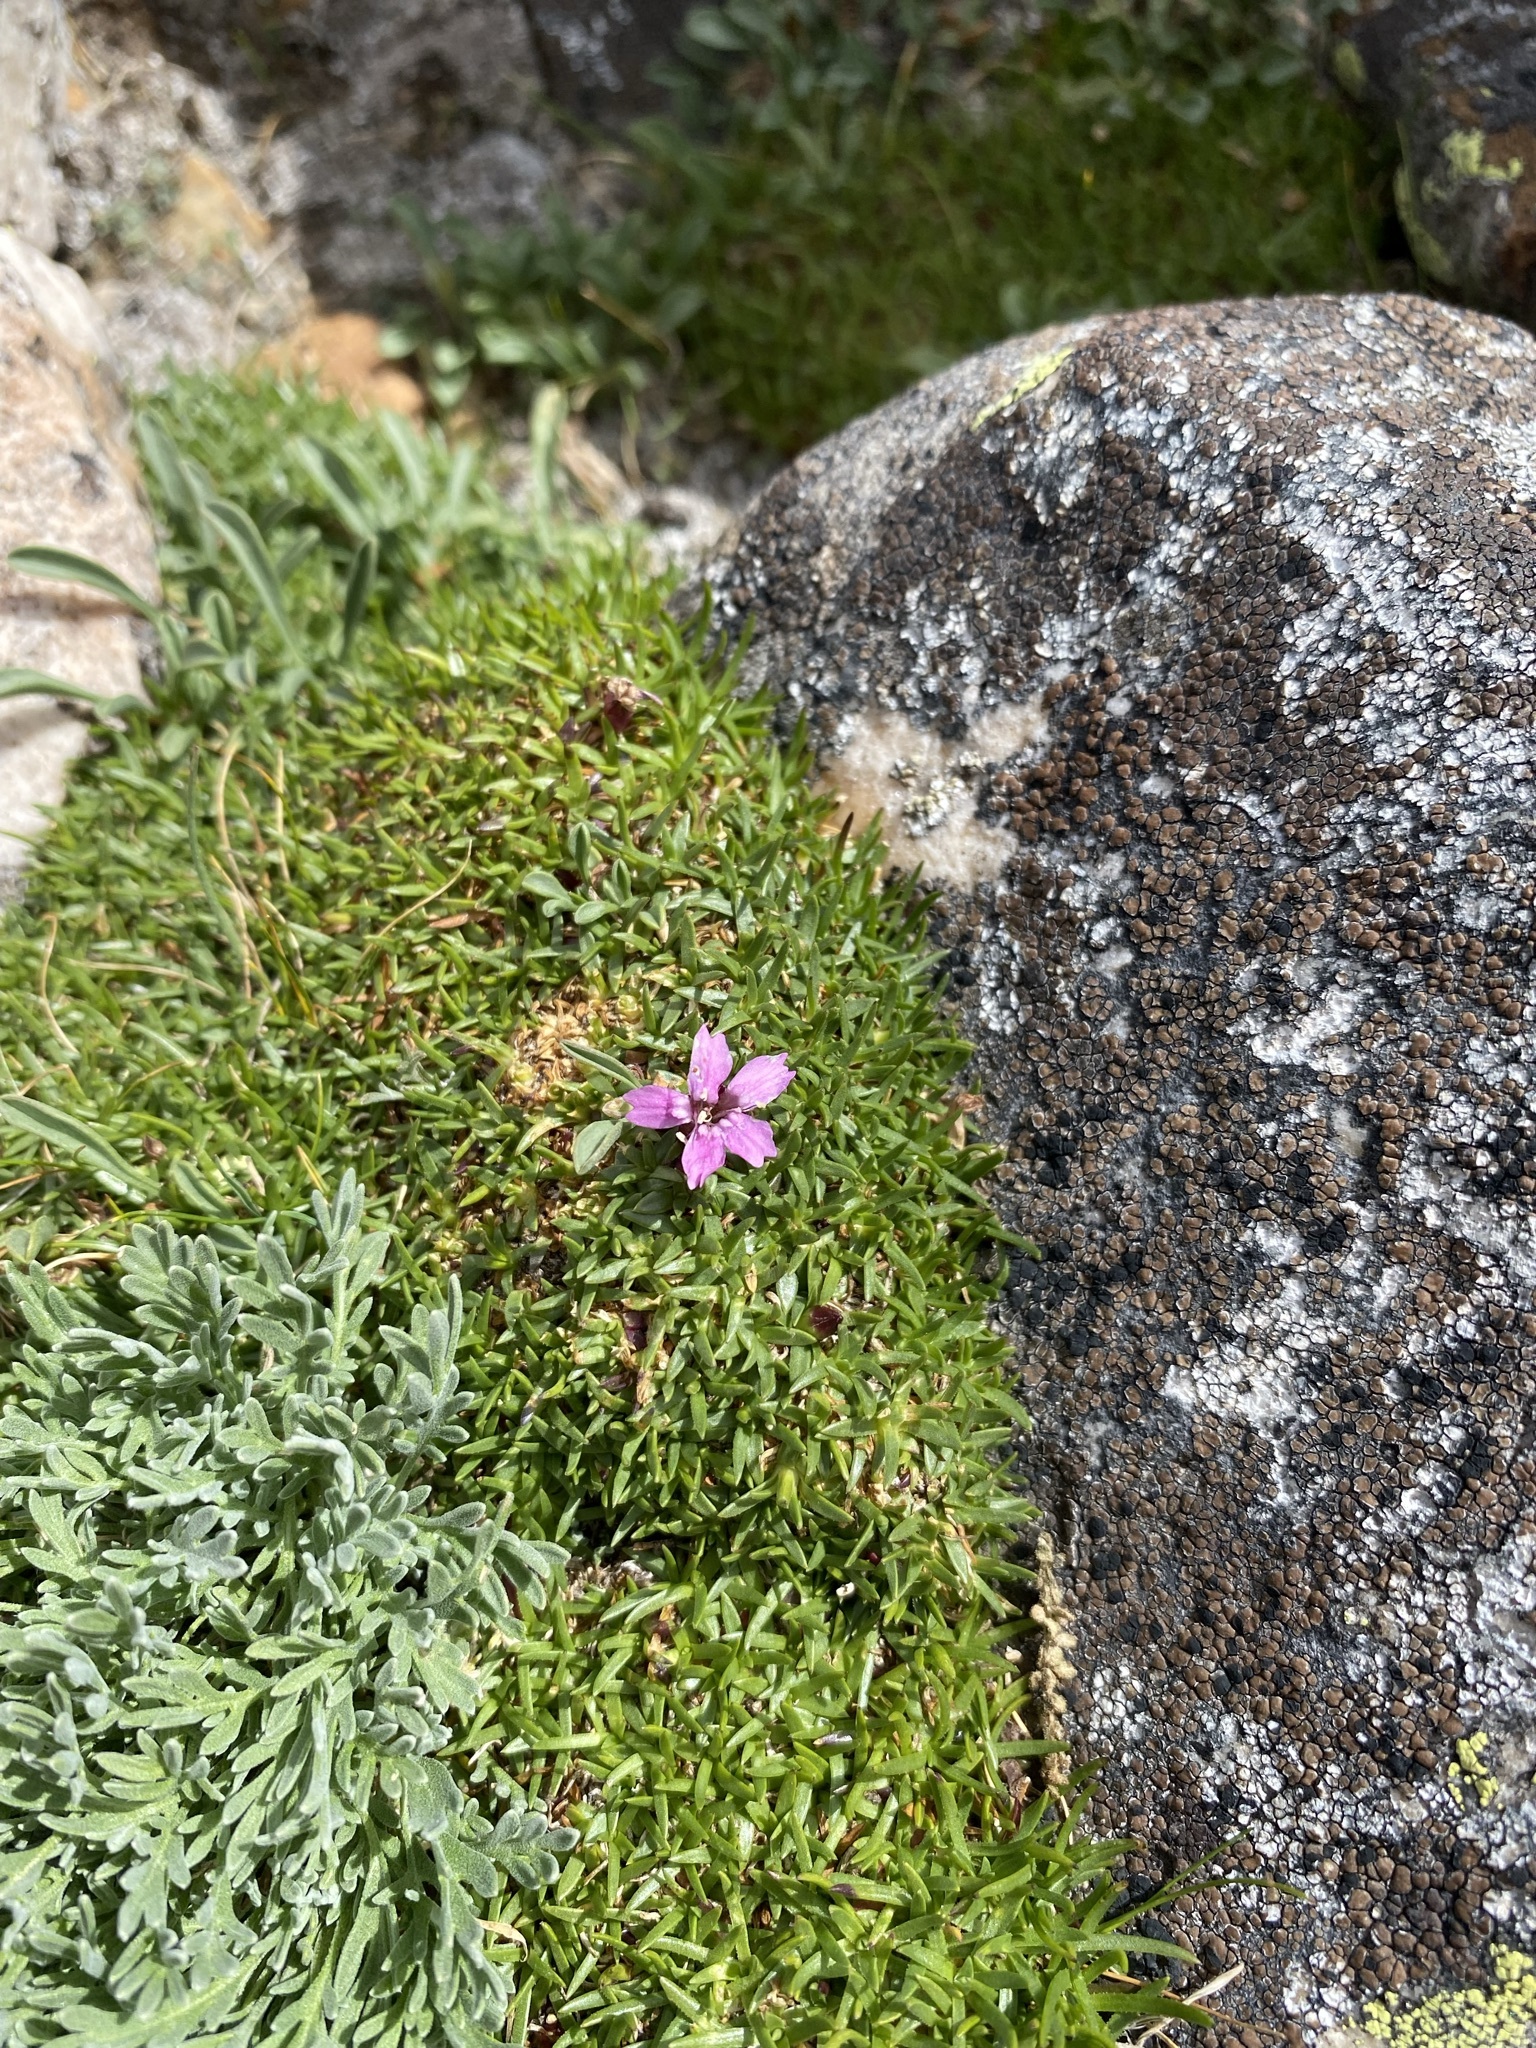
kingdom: Plantae
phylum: Tracheophyta
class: Magnoliopsida
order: Caryophyllales
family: Caryophyllaceae
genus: Silene
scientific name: Silene acaulis
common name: Moss campion
